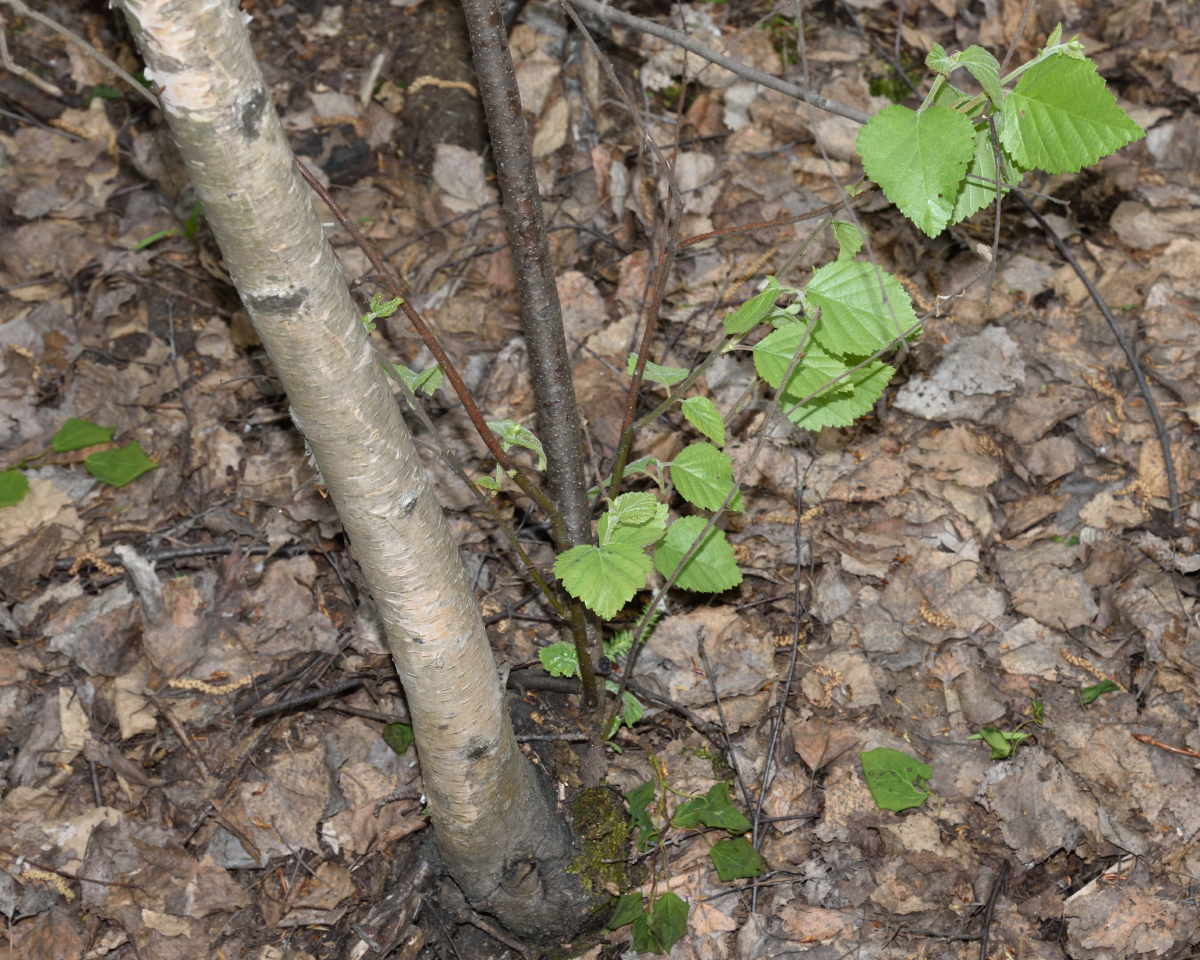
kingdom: Plantae
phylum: Tracheophyta
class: Magnoliopsida
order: Fagales
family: Betulaceae
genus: Betula
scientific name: Betula pubescens
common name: Downy birch
